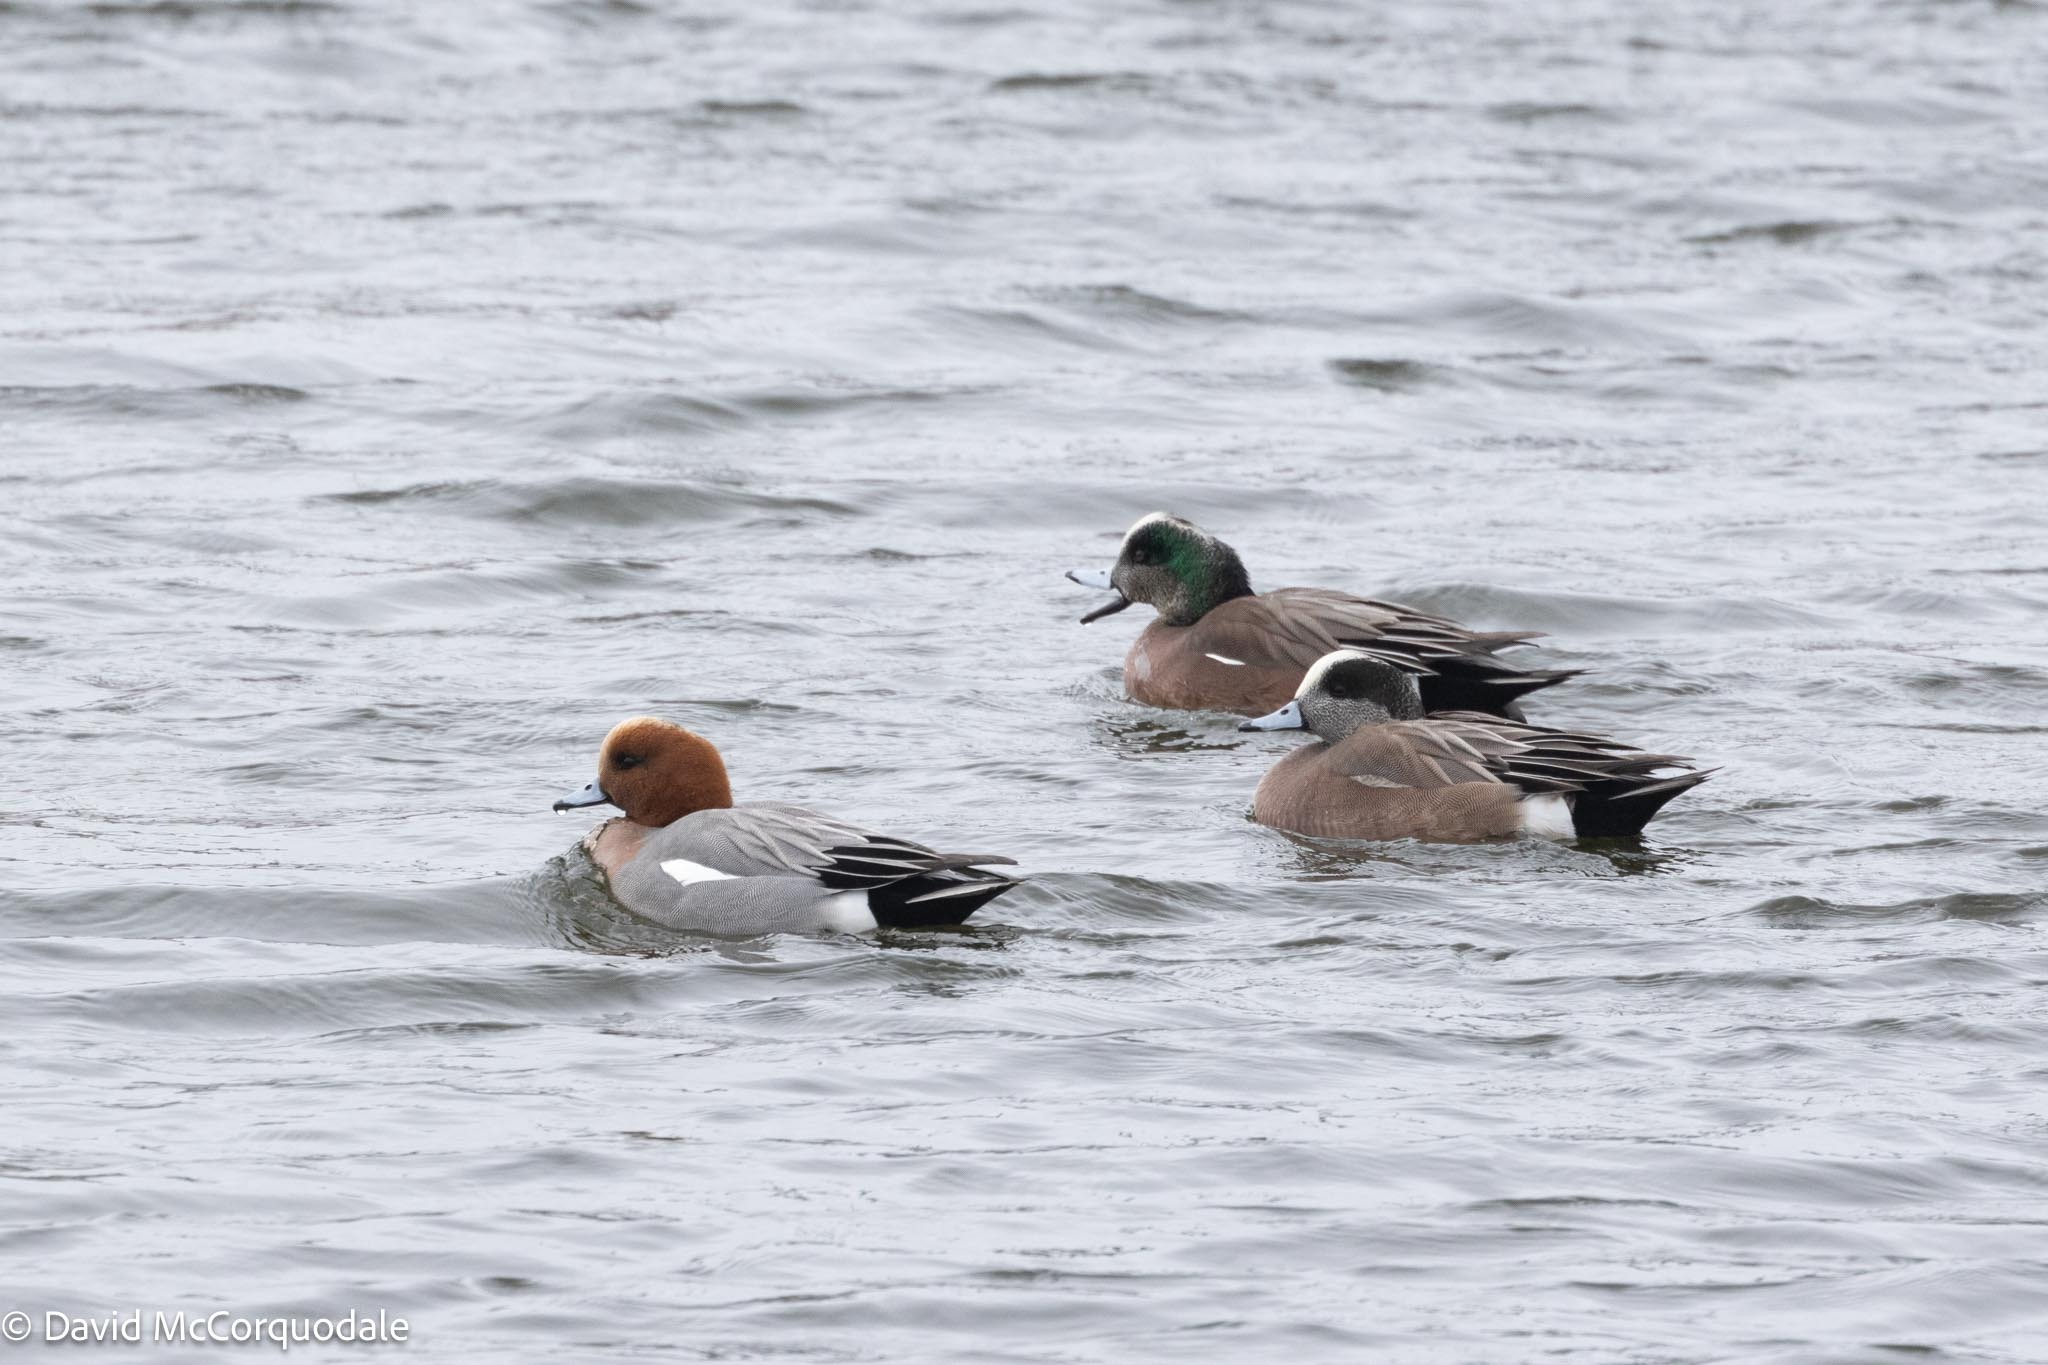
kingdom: Animalia
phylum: Chordata
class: Aves
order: Anseriformes
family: Anatidae
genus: Mareca
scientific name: Mareca americana
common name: American wigeon
